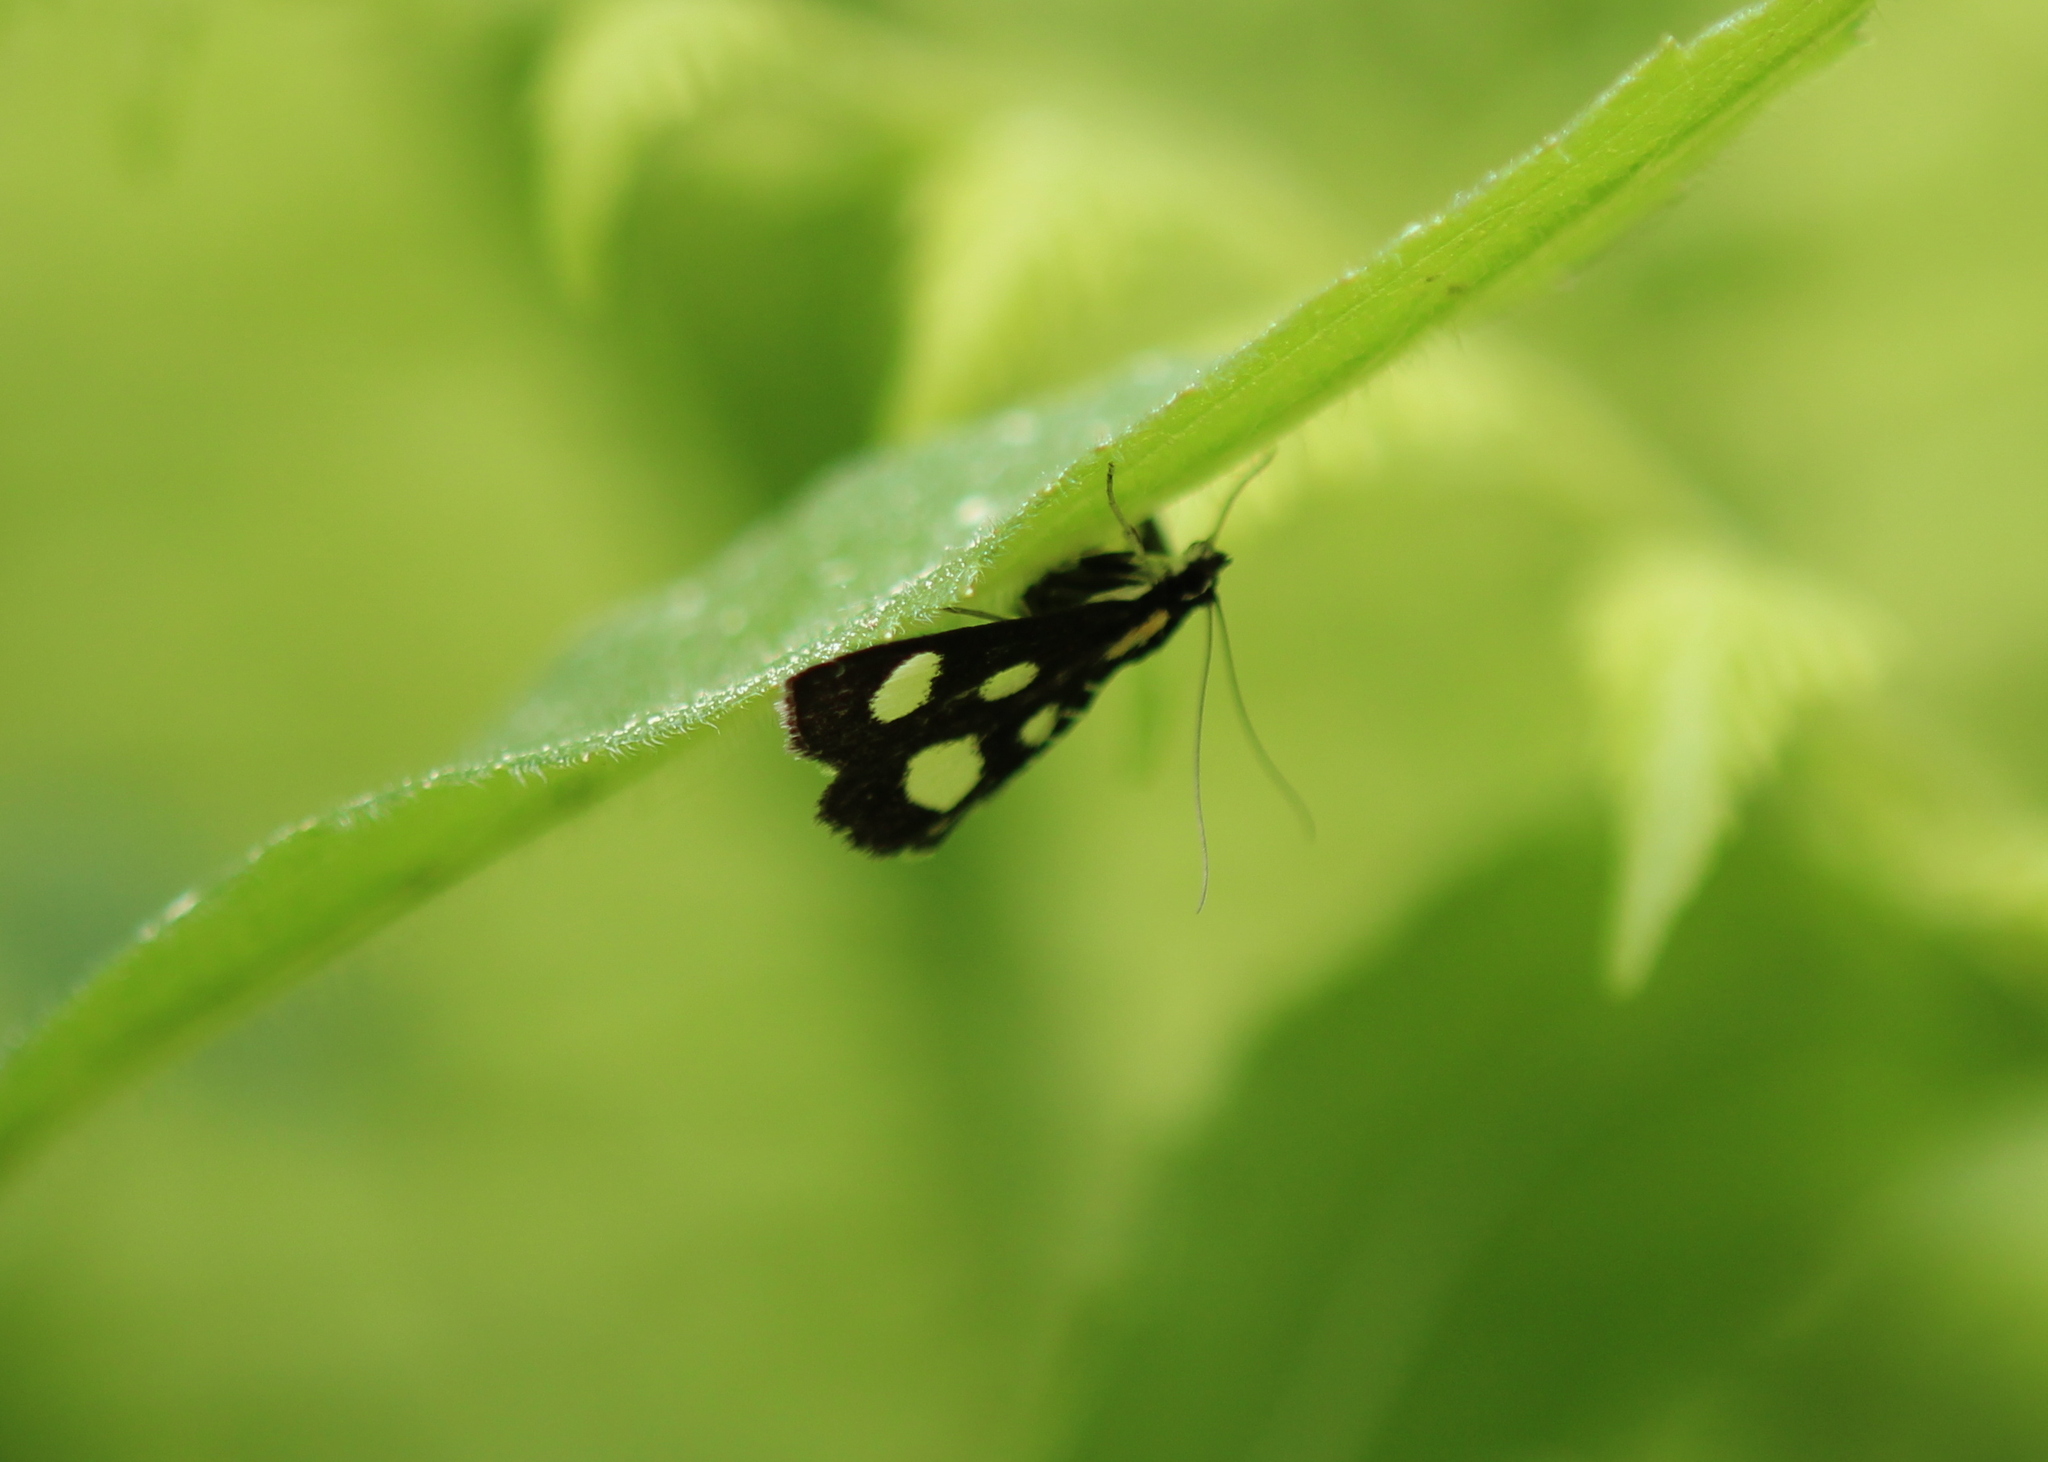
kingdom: Animalia
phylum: Arthropoda
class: Insecta
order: Lepidoptera
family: Crambidae
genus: Anania
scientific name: Anania funebris
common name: White-spotted sable moth
